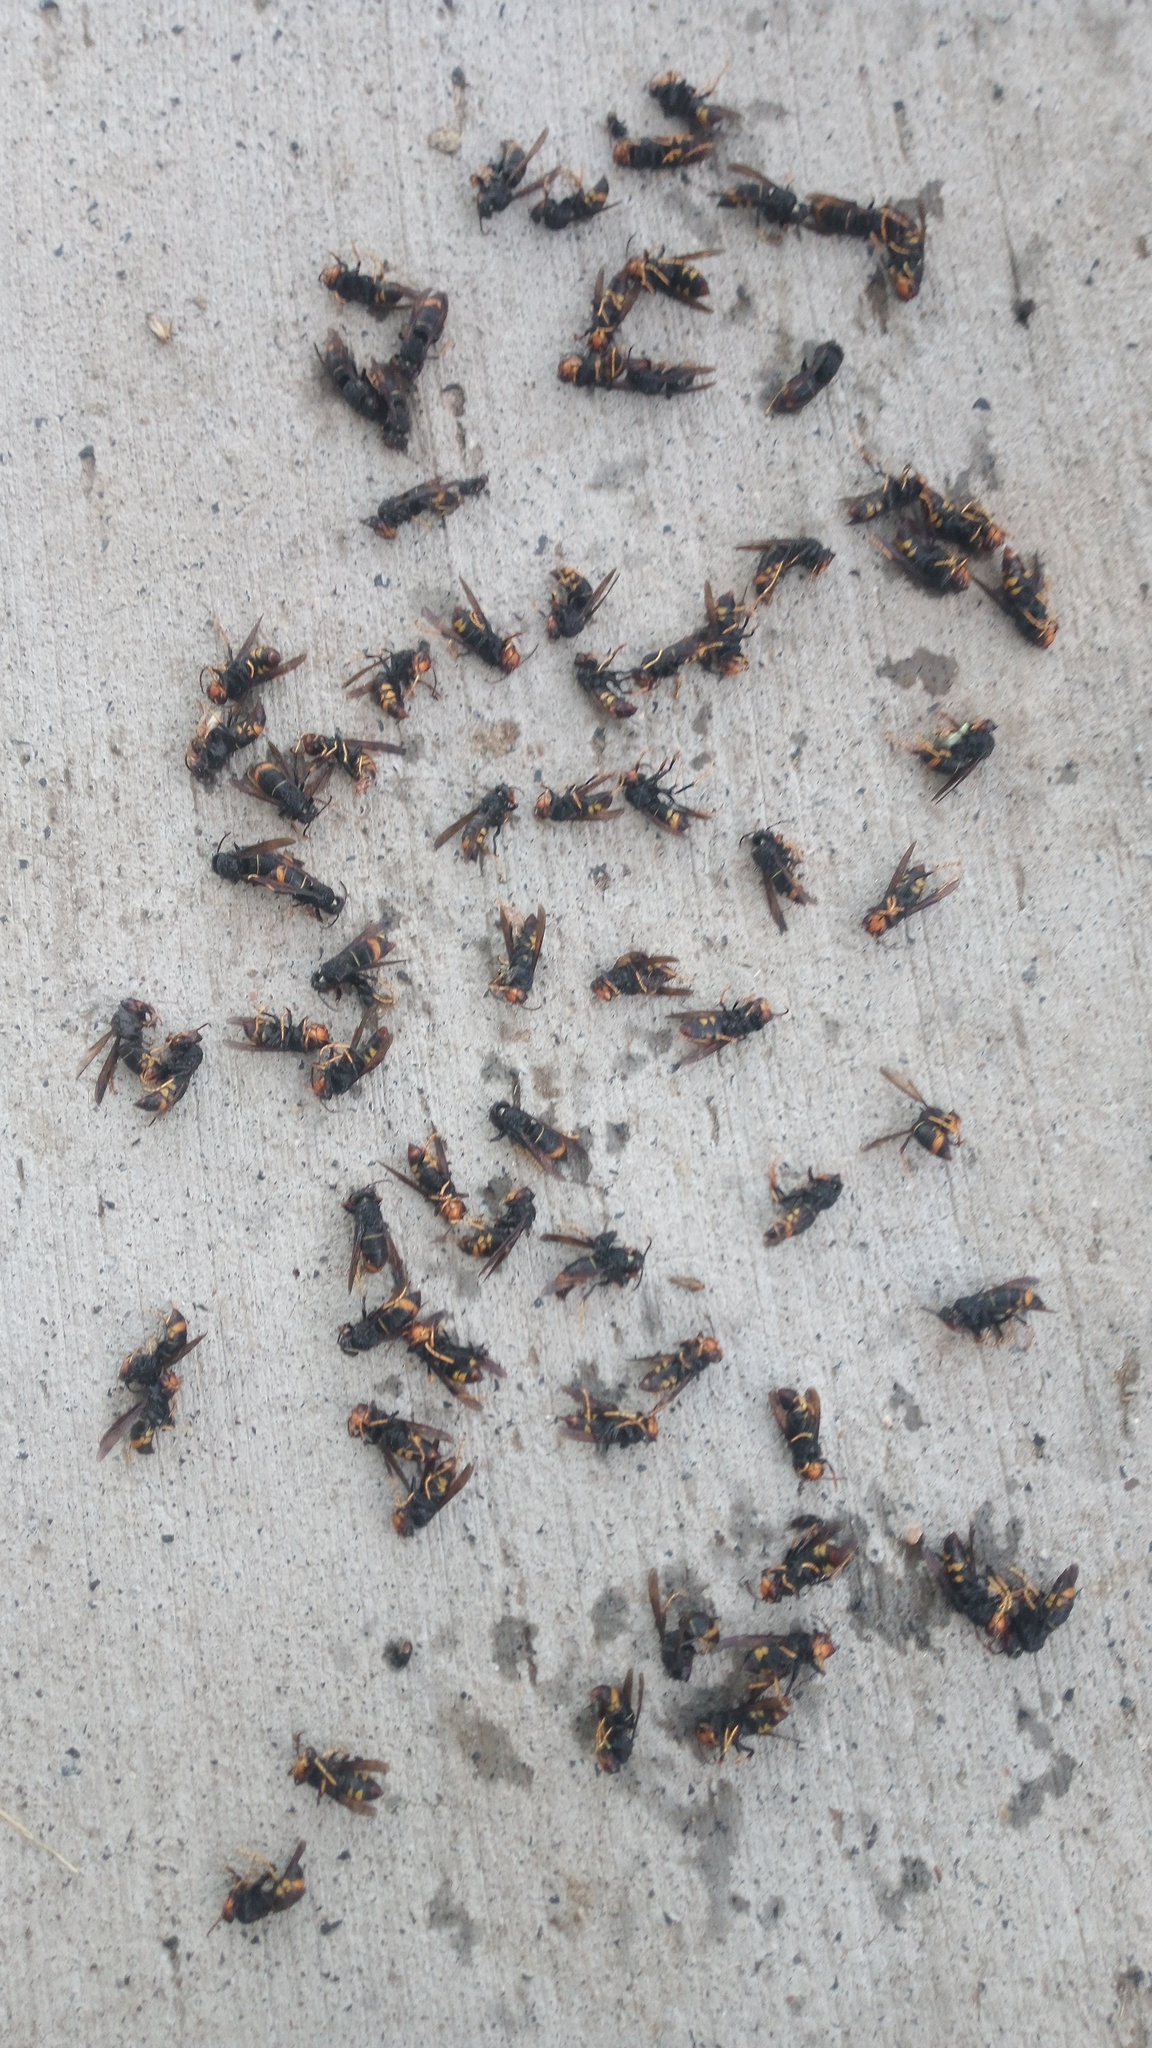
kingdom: Animalia
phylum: Arthropoda
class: Insecta
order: Hymenoptera
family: Vespidae
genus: Vespa
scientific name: Vespa velutina
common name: Asian hornet
